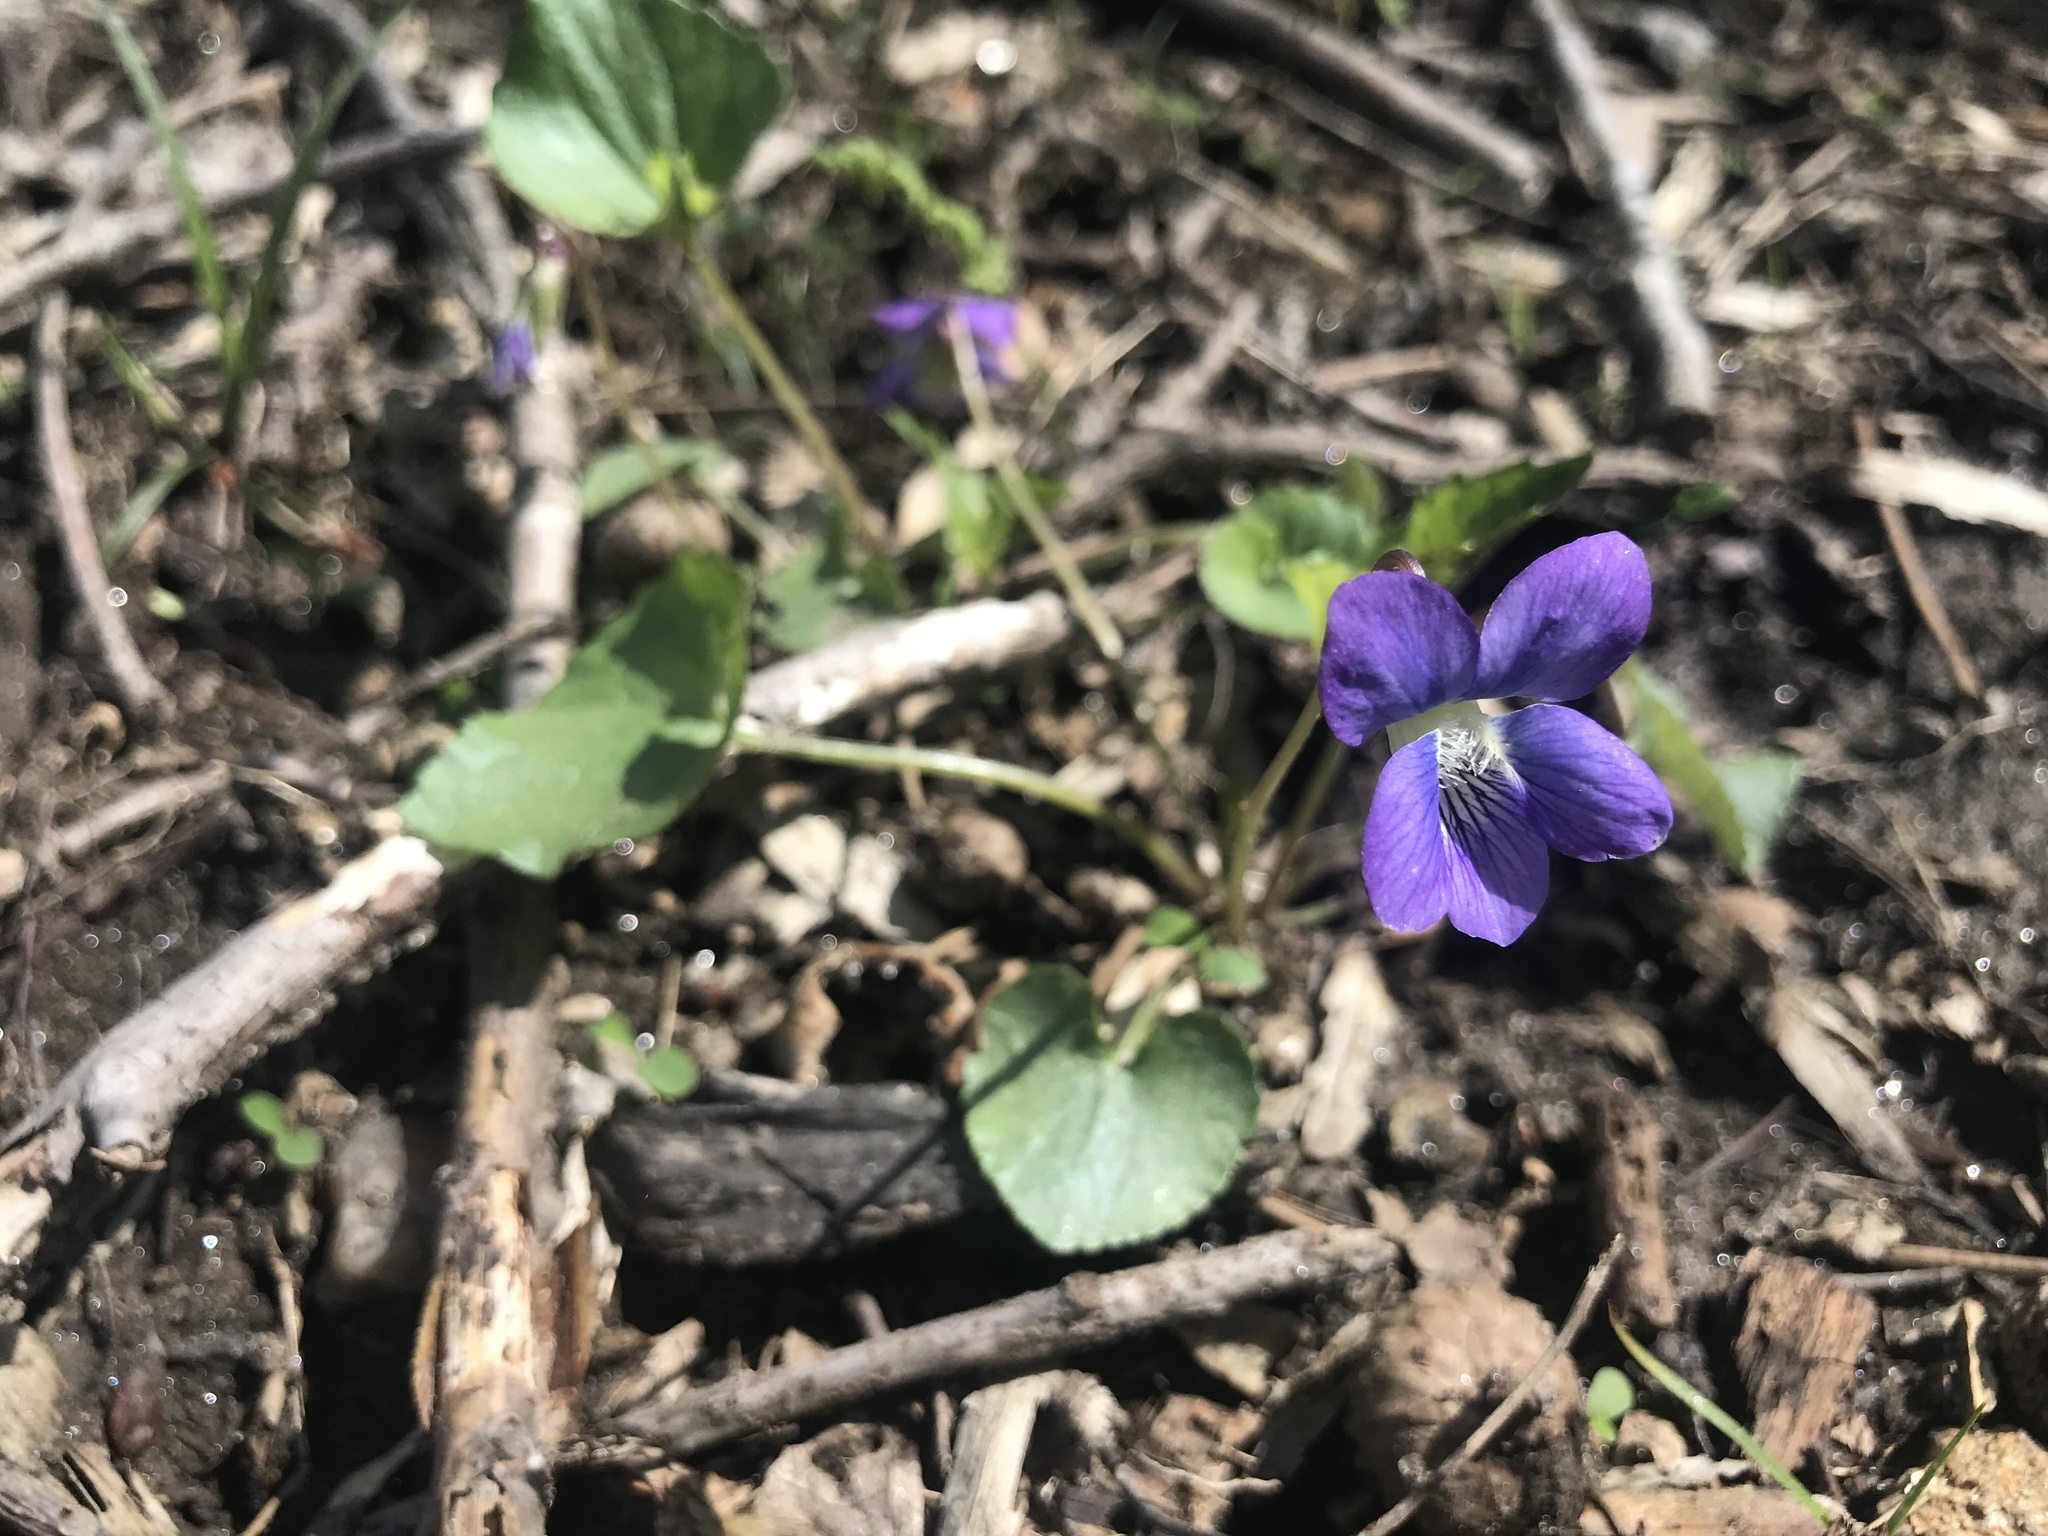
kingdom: Plantae
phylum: Tracheophyta
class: Magnoliopsida
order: Malpighiales
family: Violaceae
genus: Viola
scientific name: Viola sororia
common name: Dooryard violet
